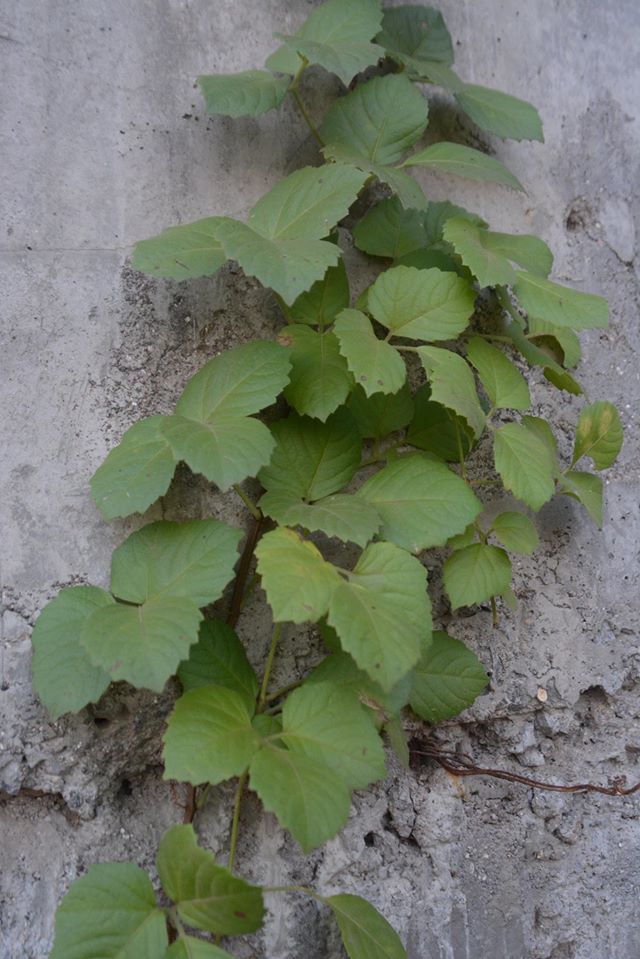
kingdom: Plantae
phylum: Tracheophyta
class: Magnoliopsida
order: Vitales
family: Vitaceae
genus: Causonis
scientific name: Causonis trifolia
